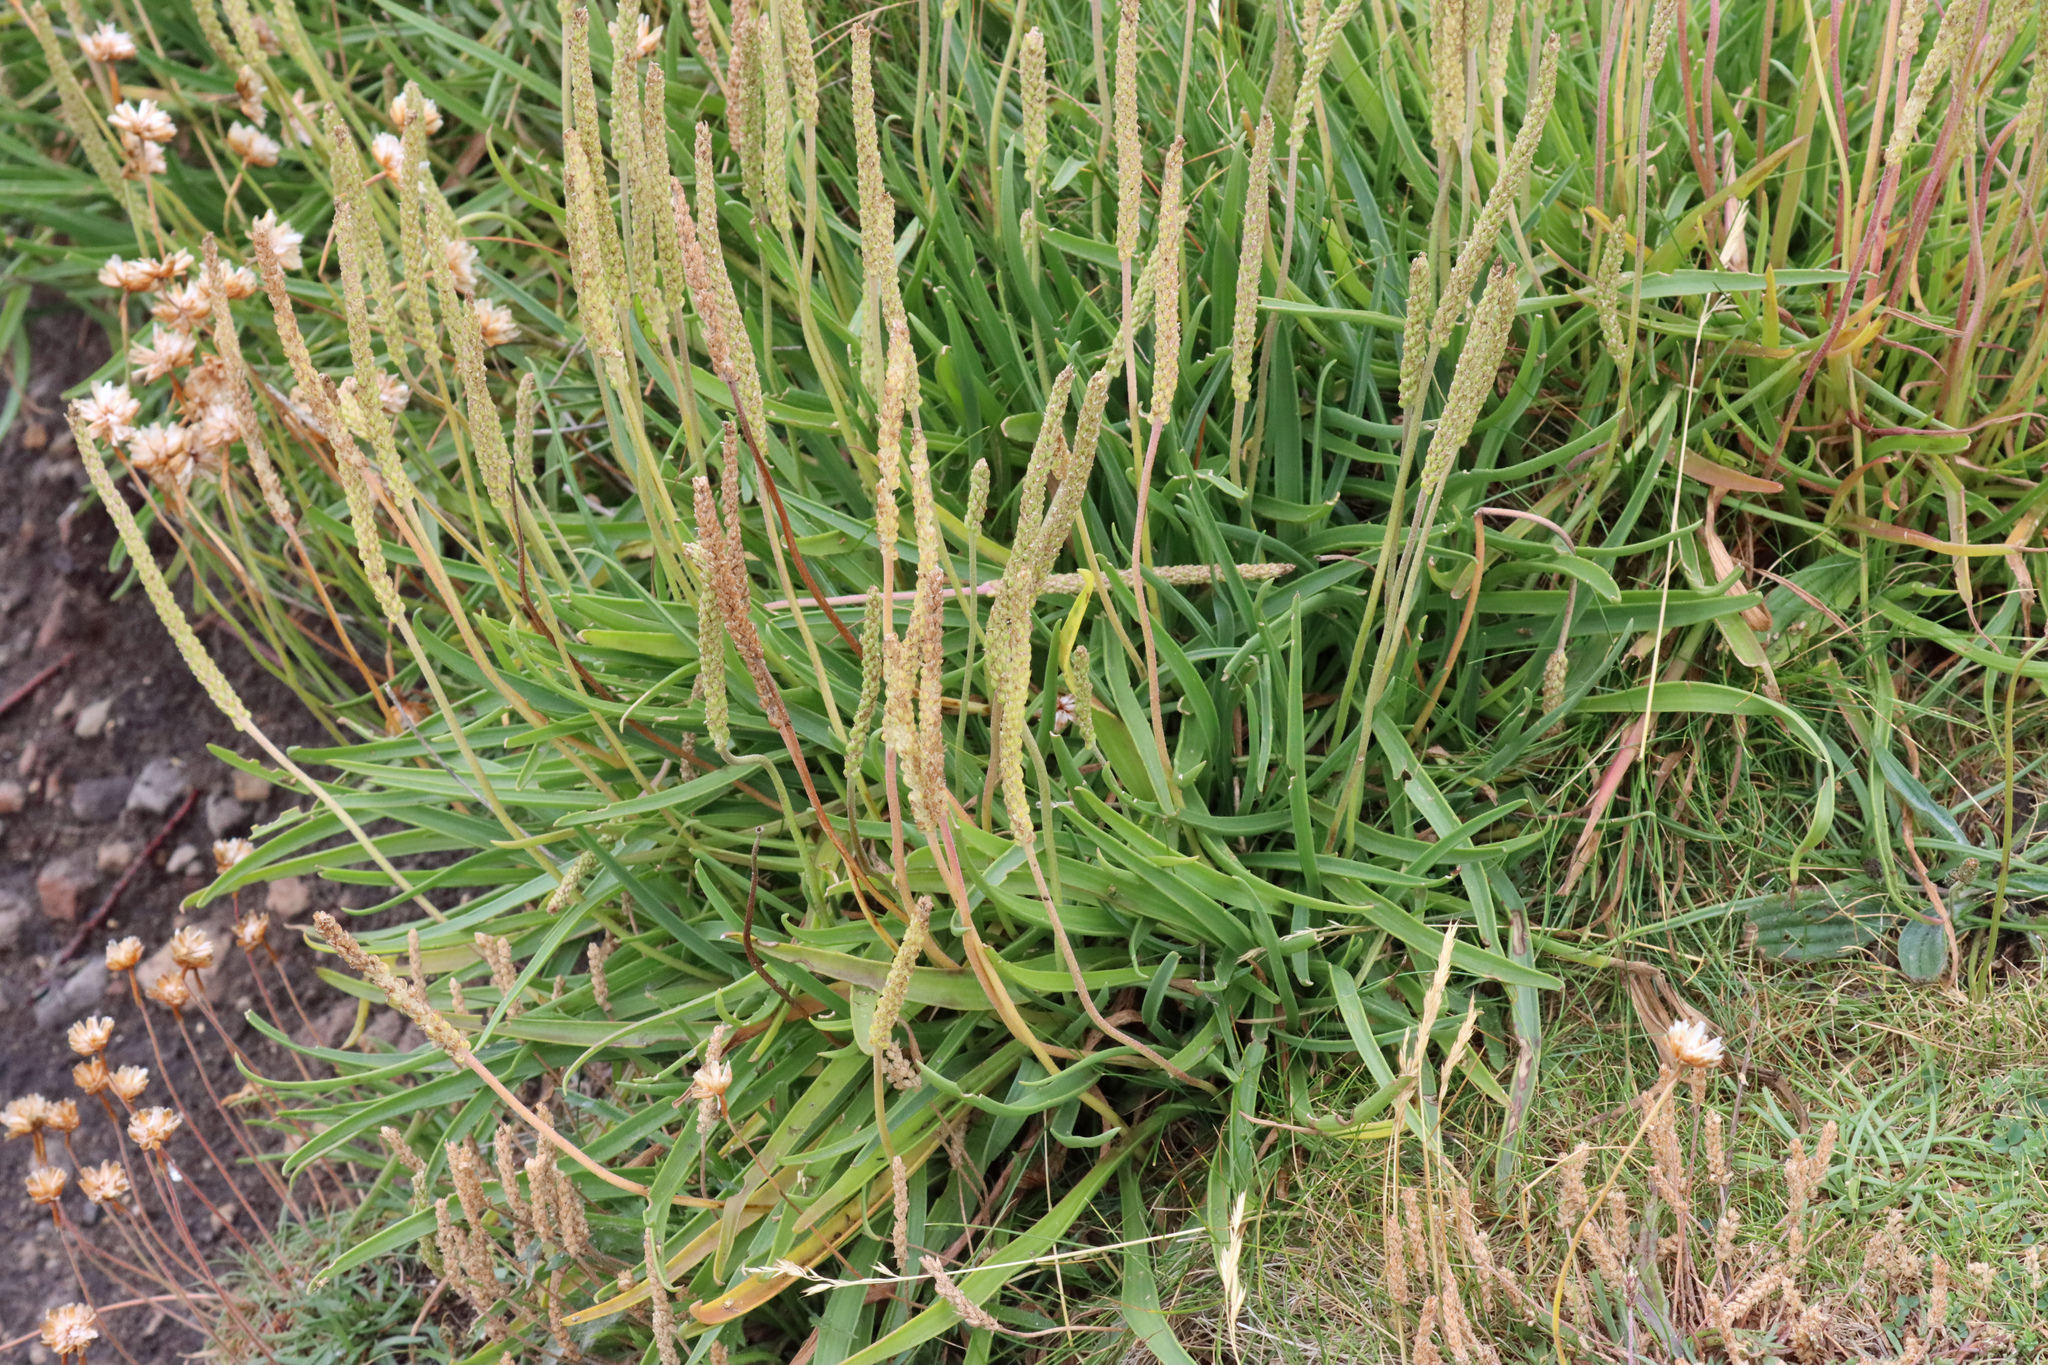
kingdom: Plantae
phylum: Tracheophyta
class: Magnoliopsida
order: Lamiales
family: Plantaginaceae
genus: Plantago
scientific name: Plantago maritima
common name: Sea plantain
